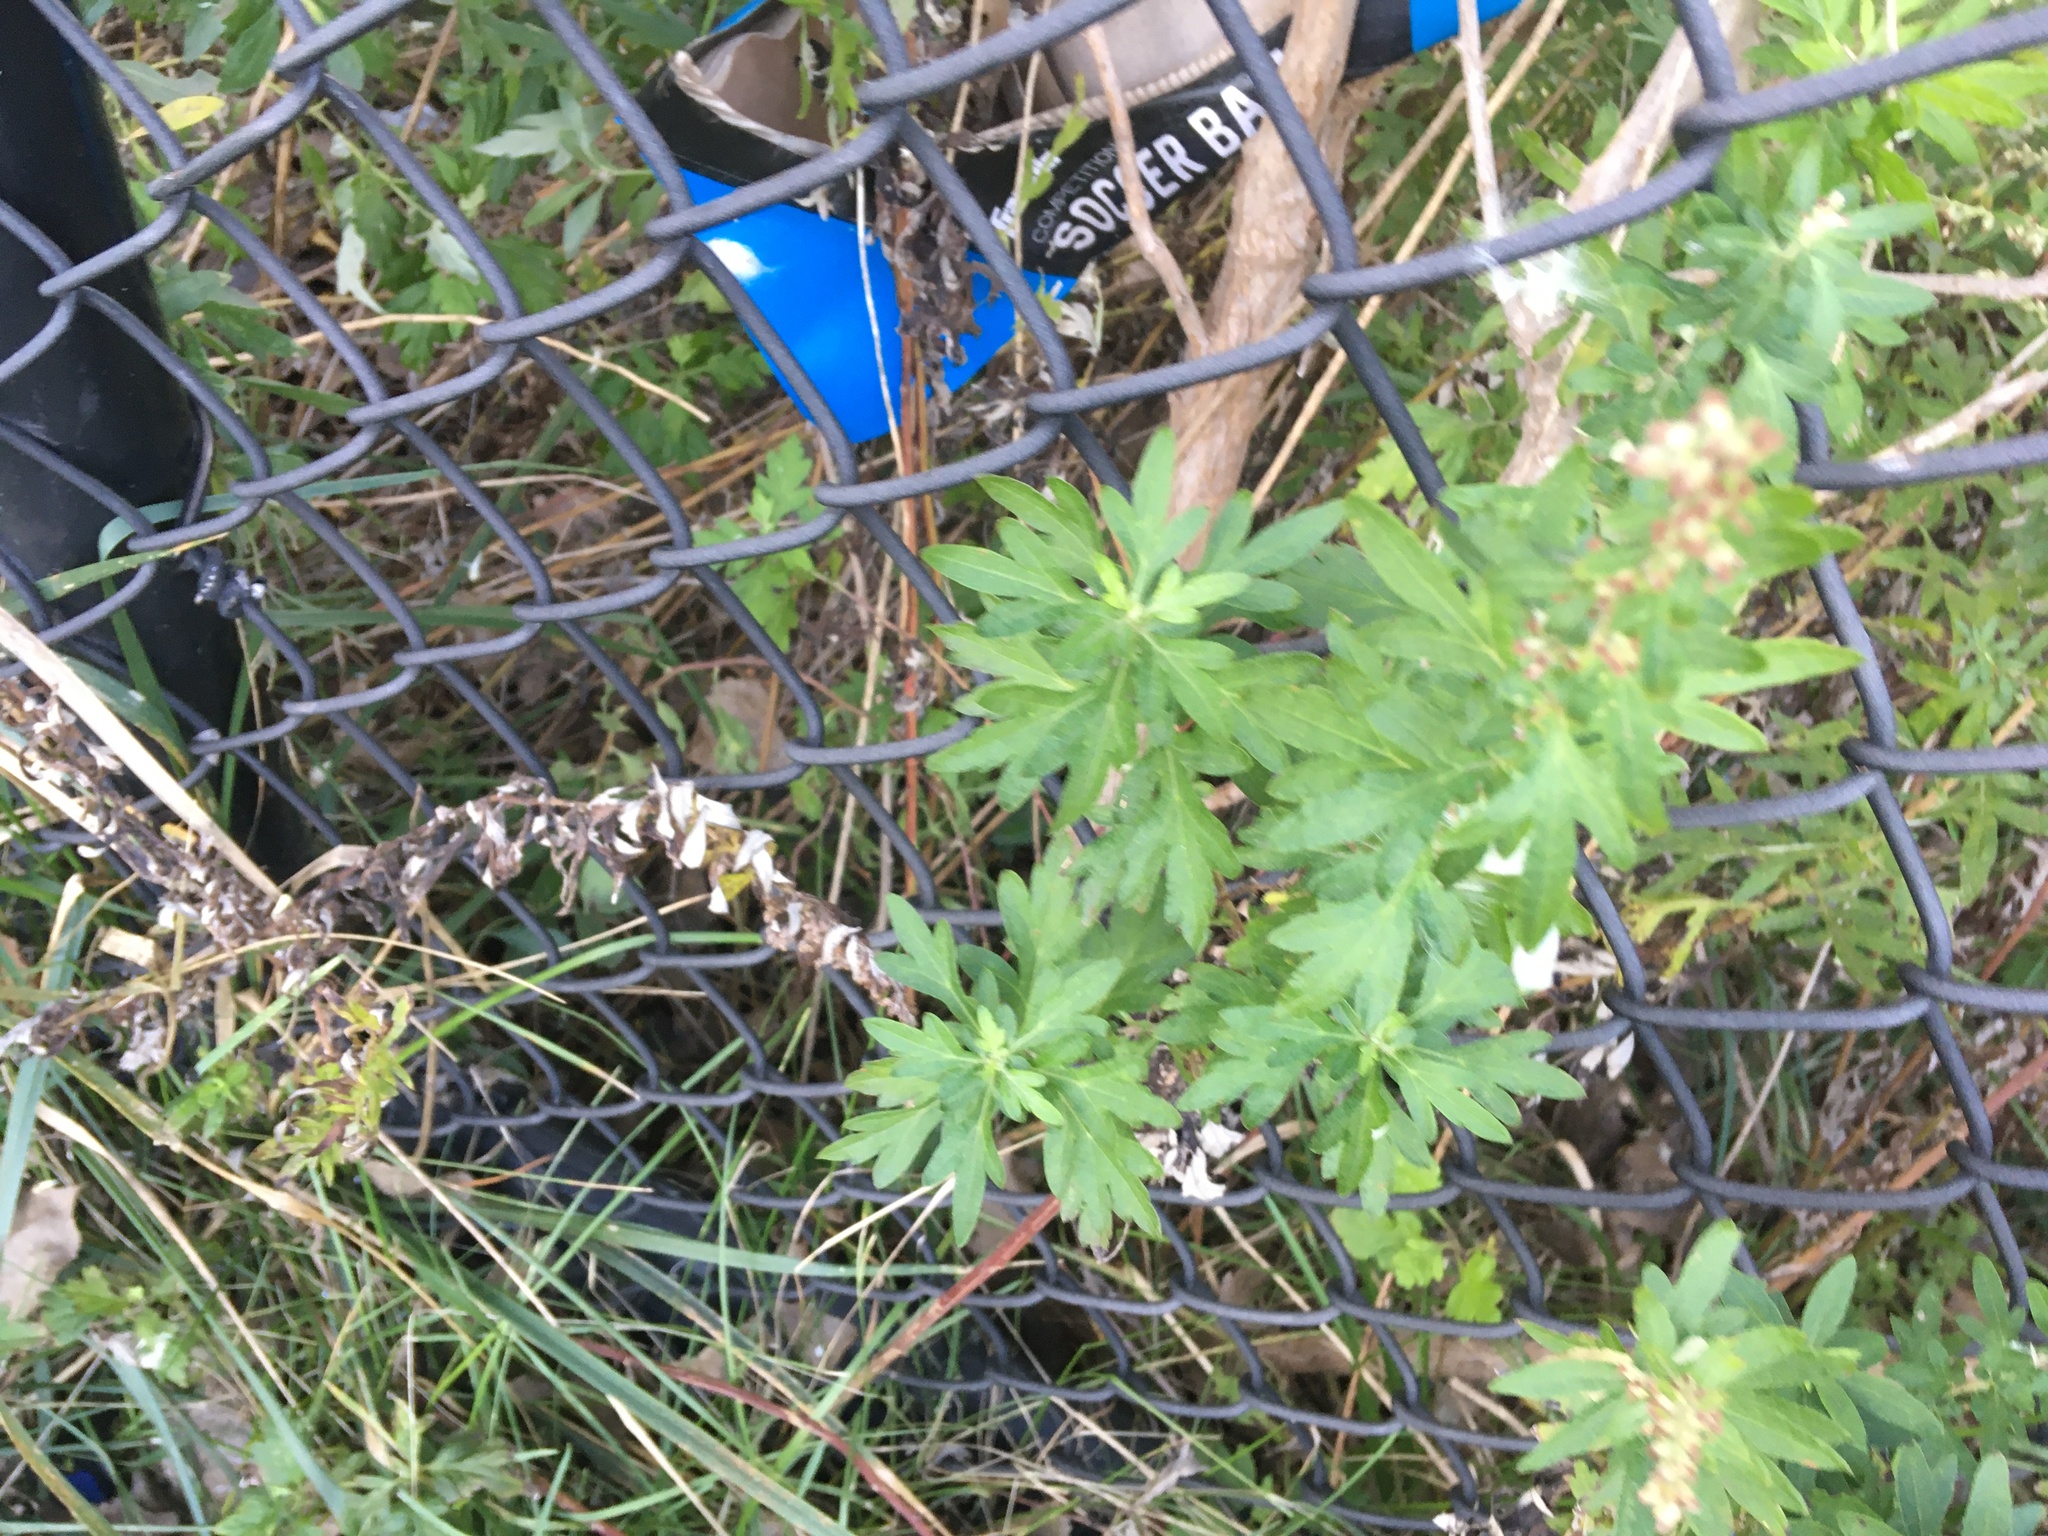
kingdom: Plantae
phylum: Tracheophyta
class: Magnoliopsida
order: Asterales
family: Asteraceae
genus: Artemisia
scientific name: Artemisia vulgaris
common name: Mugwort
